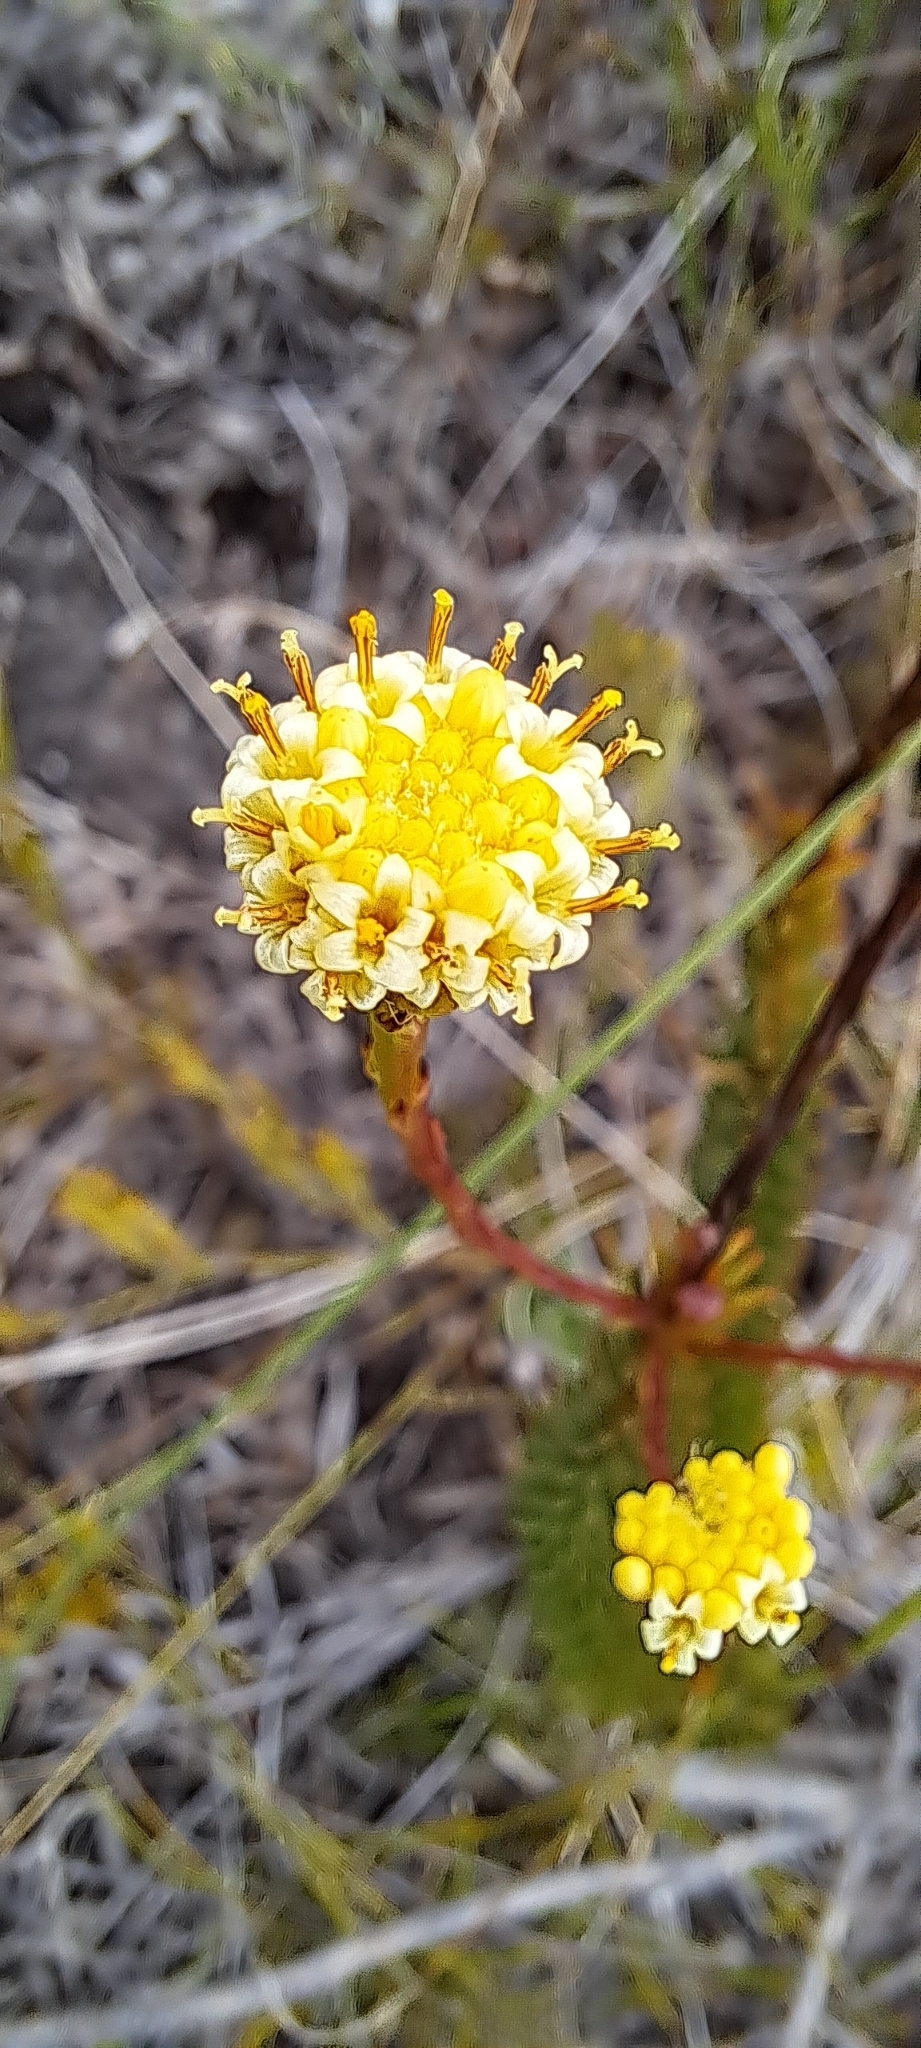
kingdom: Plantae
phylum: Tracheophyta
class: Magnoliopsida
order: Asterales
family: Asteraceae
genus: Senecio
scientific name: Senecio triqueter
